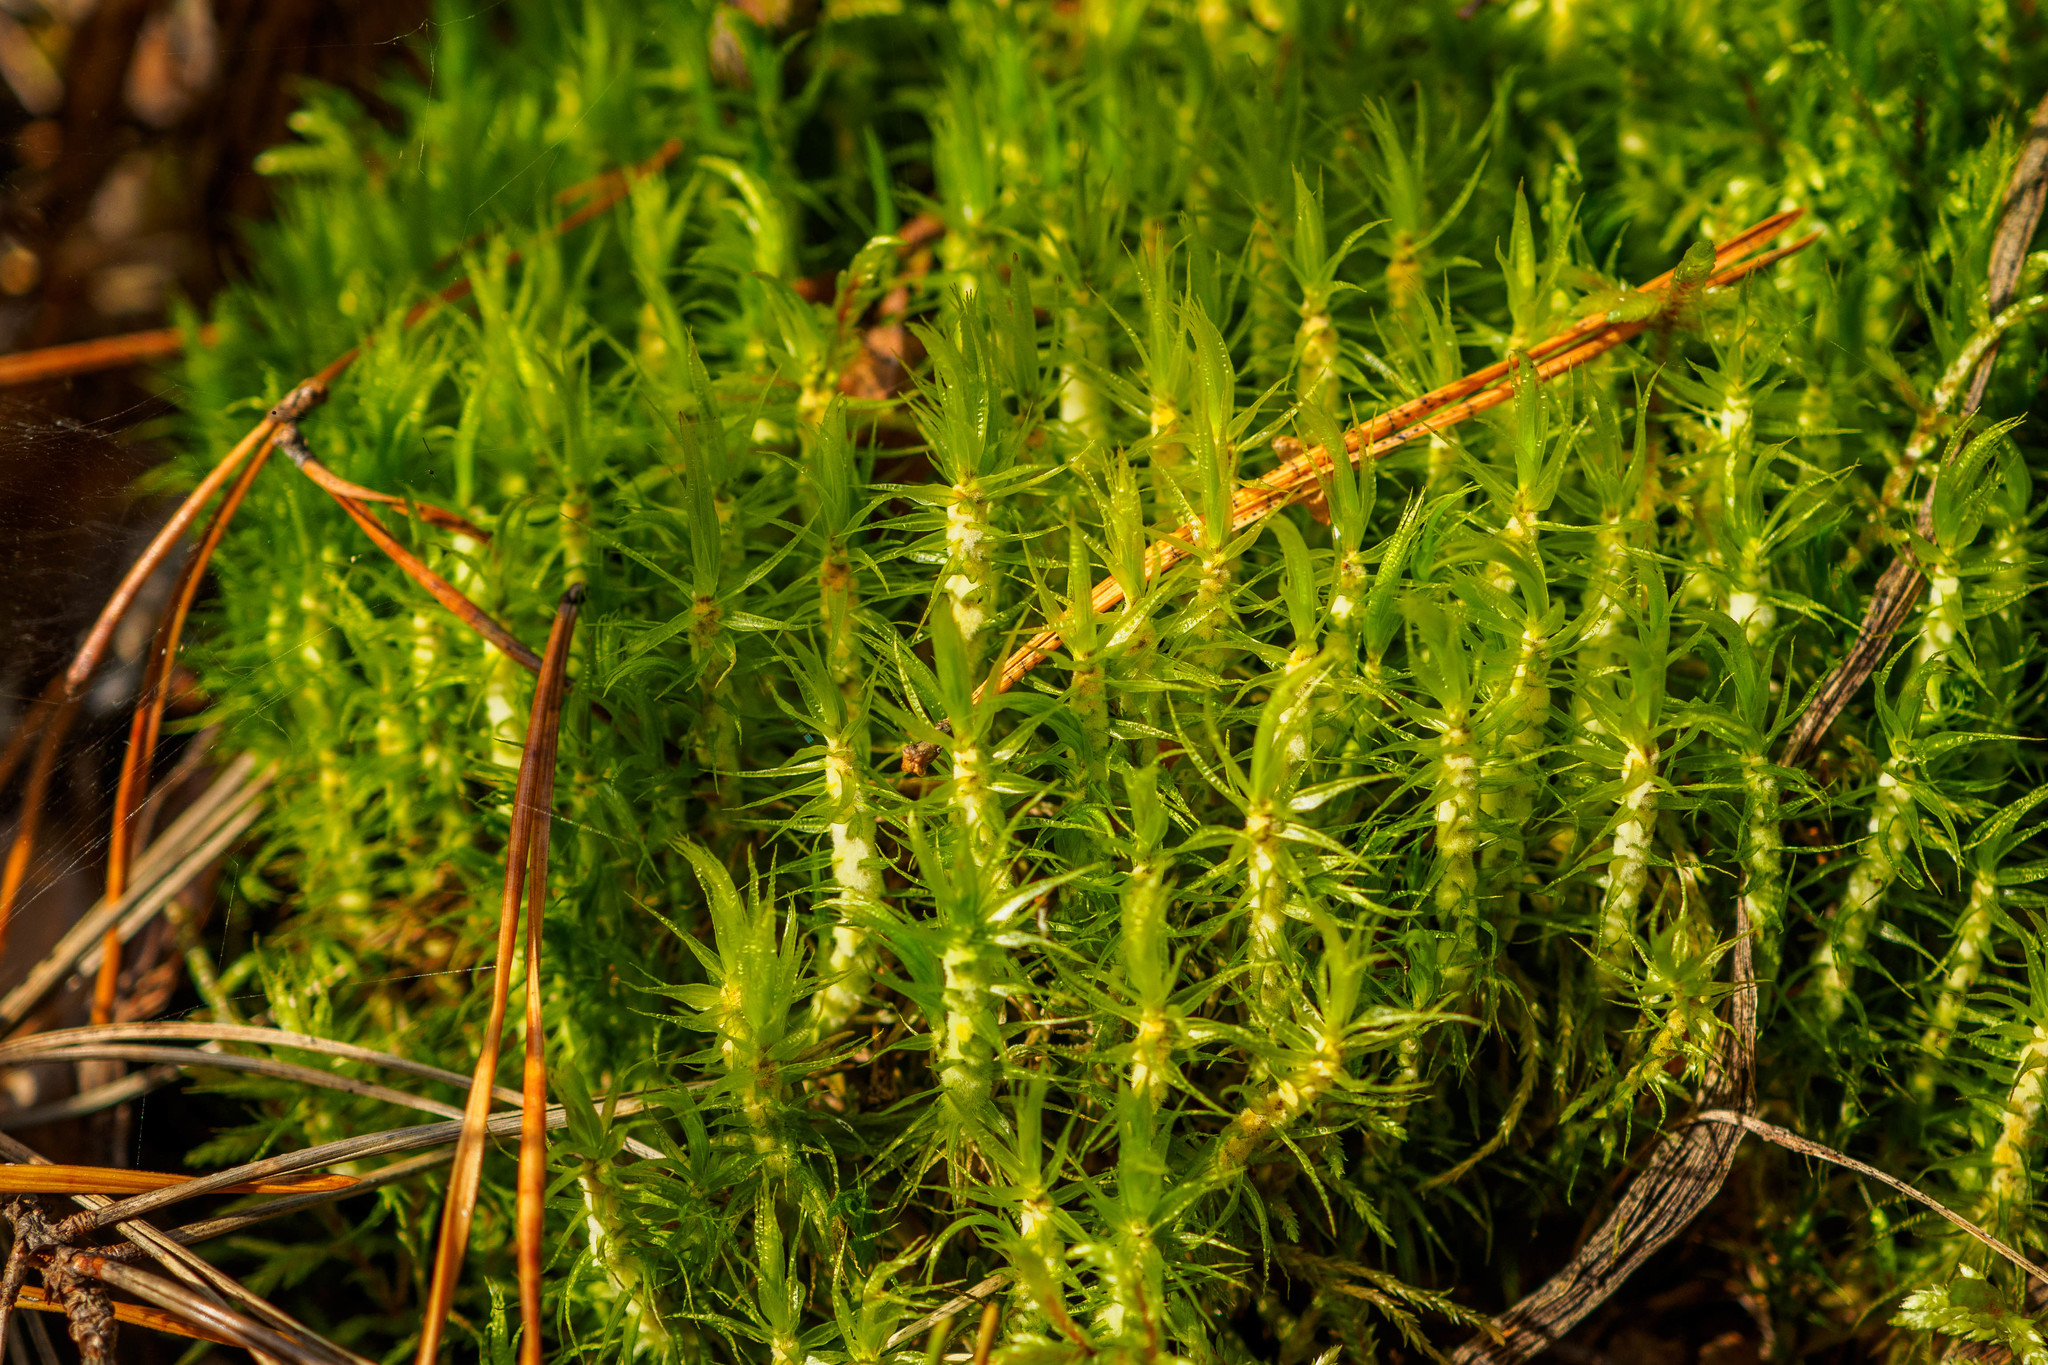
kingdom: Plantae
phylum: Bryophyta
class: Bryopsida
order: Dicranales
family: Dicranaceae
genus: Dicranum
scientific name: Dicranum polysetum
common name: Rugose fork-moss
